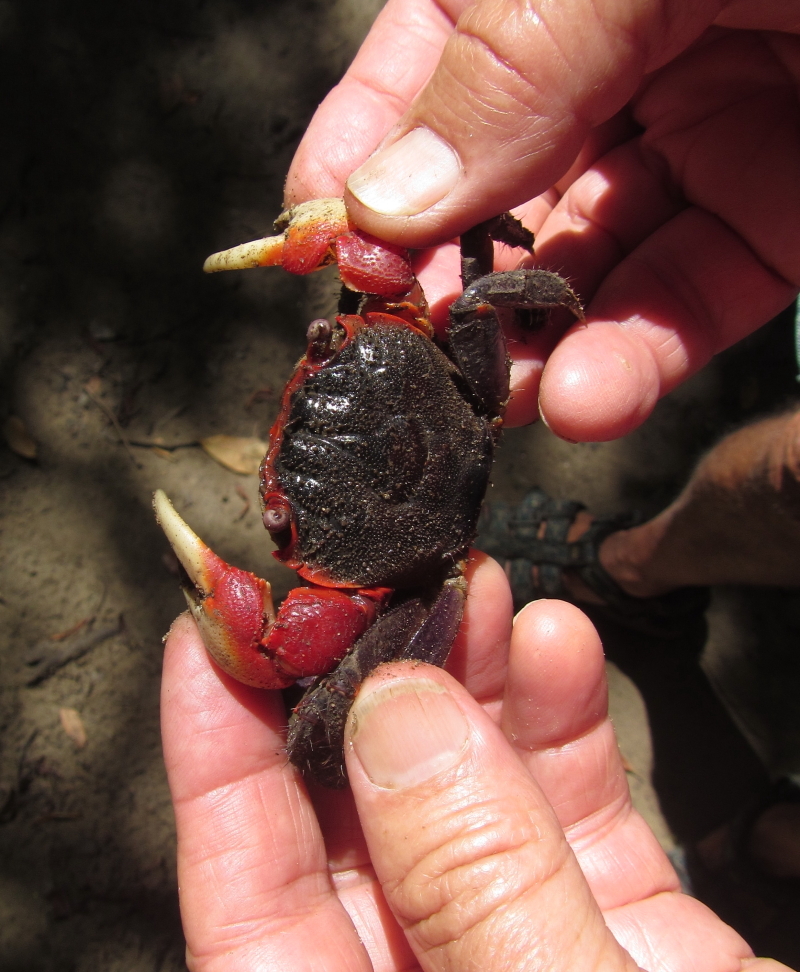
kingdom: Animalia
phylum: Arthropoda
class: Malacostraca
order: Decapoda
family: Sesarmidae
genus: Neosarmatium
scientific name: Neosarmatium africanum
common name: East african red mangrove crab
